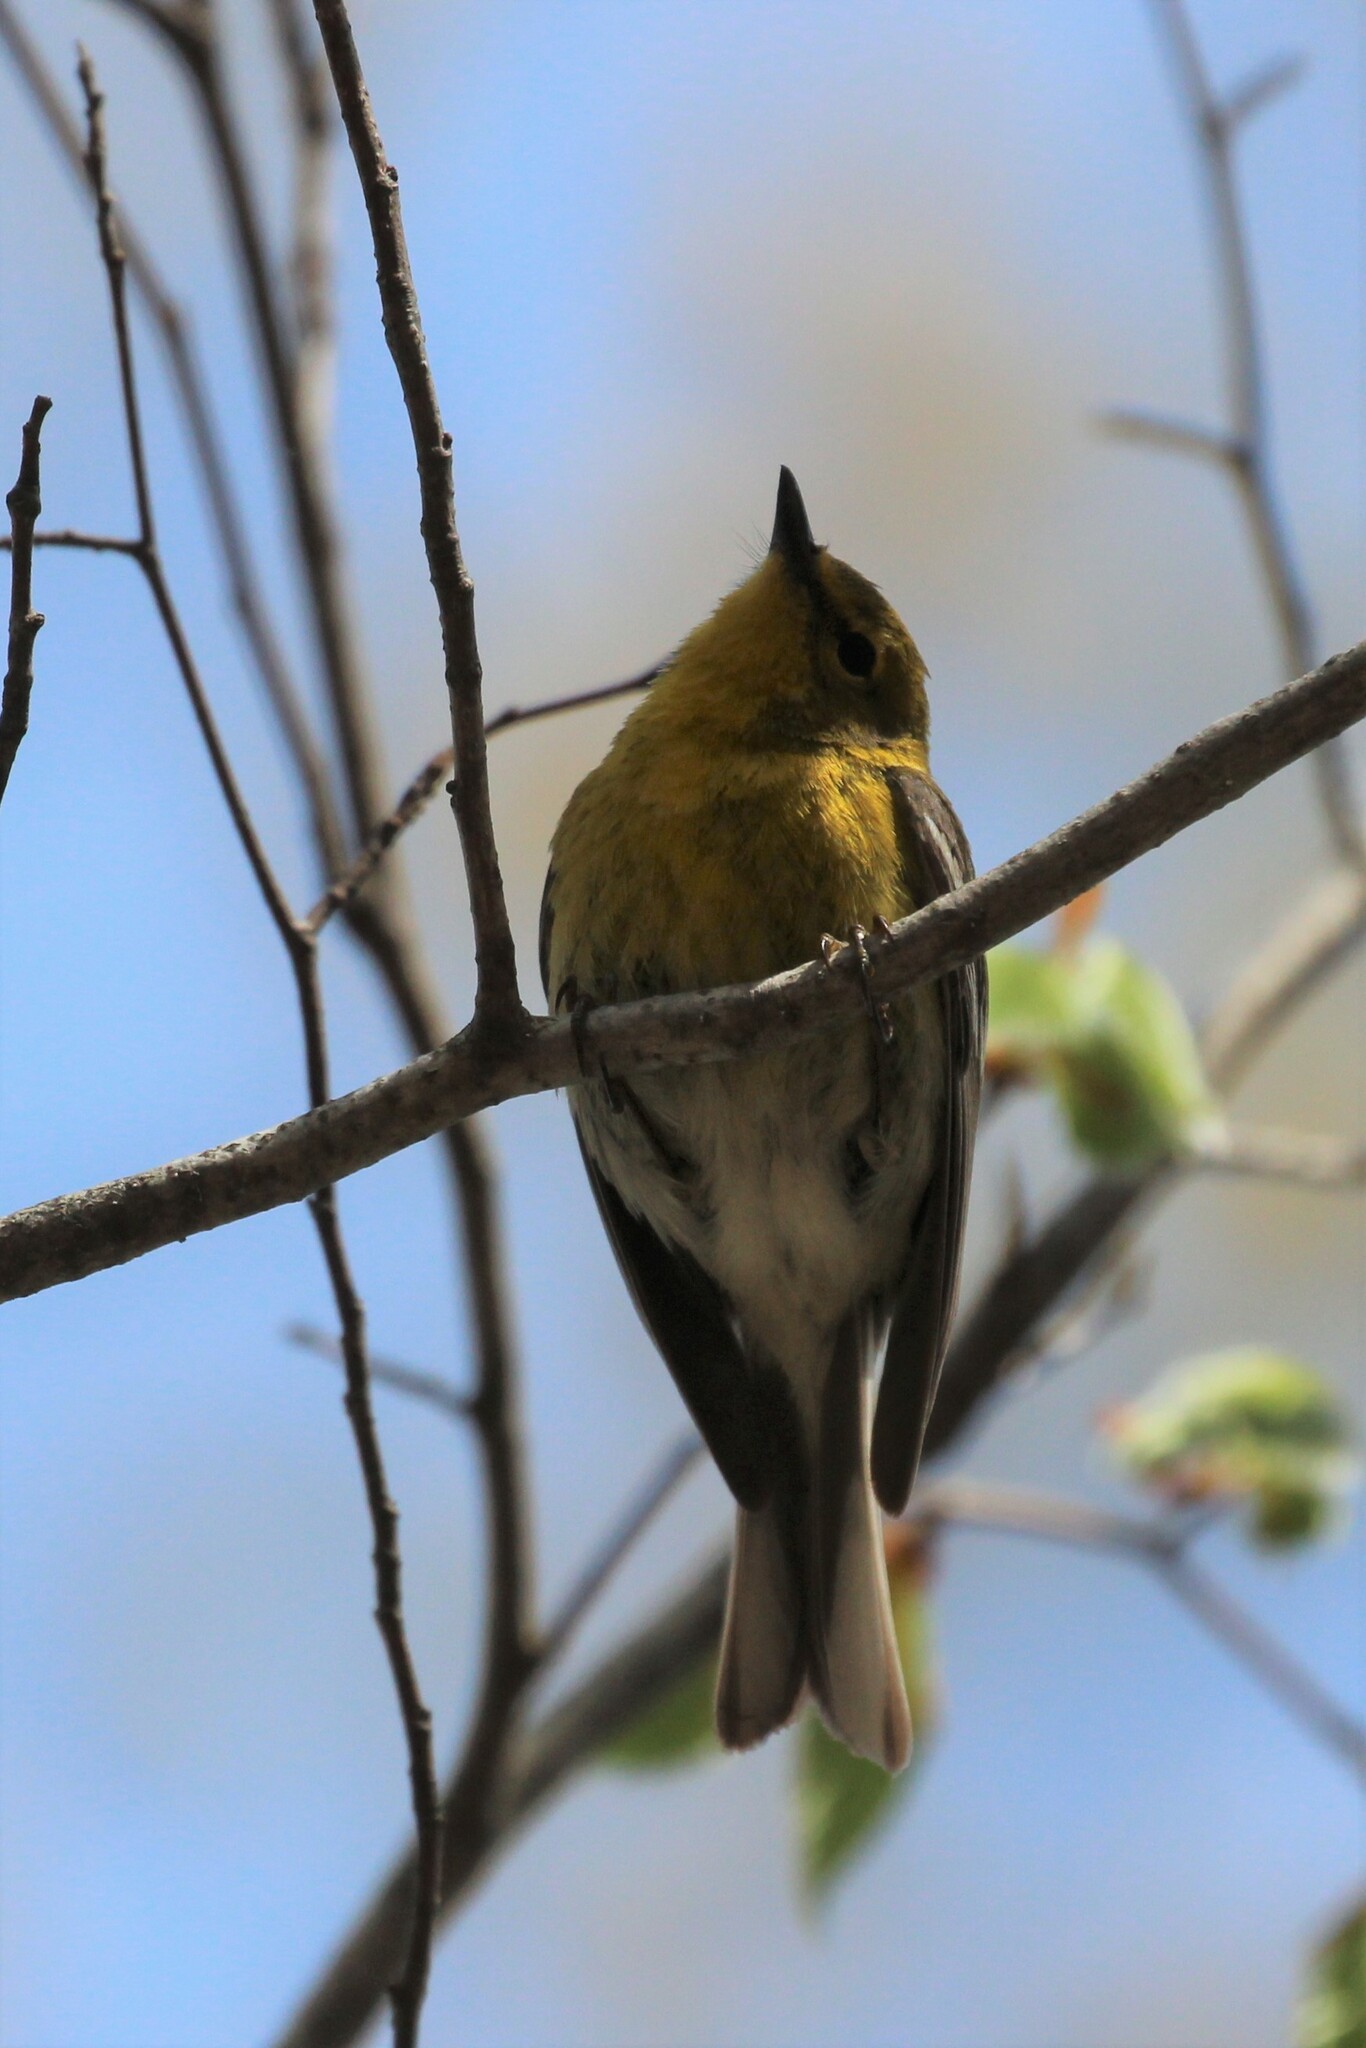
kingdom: Animalia
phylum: Chordata
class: Aves
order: Passeriformes
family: Parulidae
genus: Setophaga
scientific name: Setophaga pinus
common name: Pine warbler
